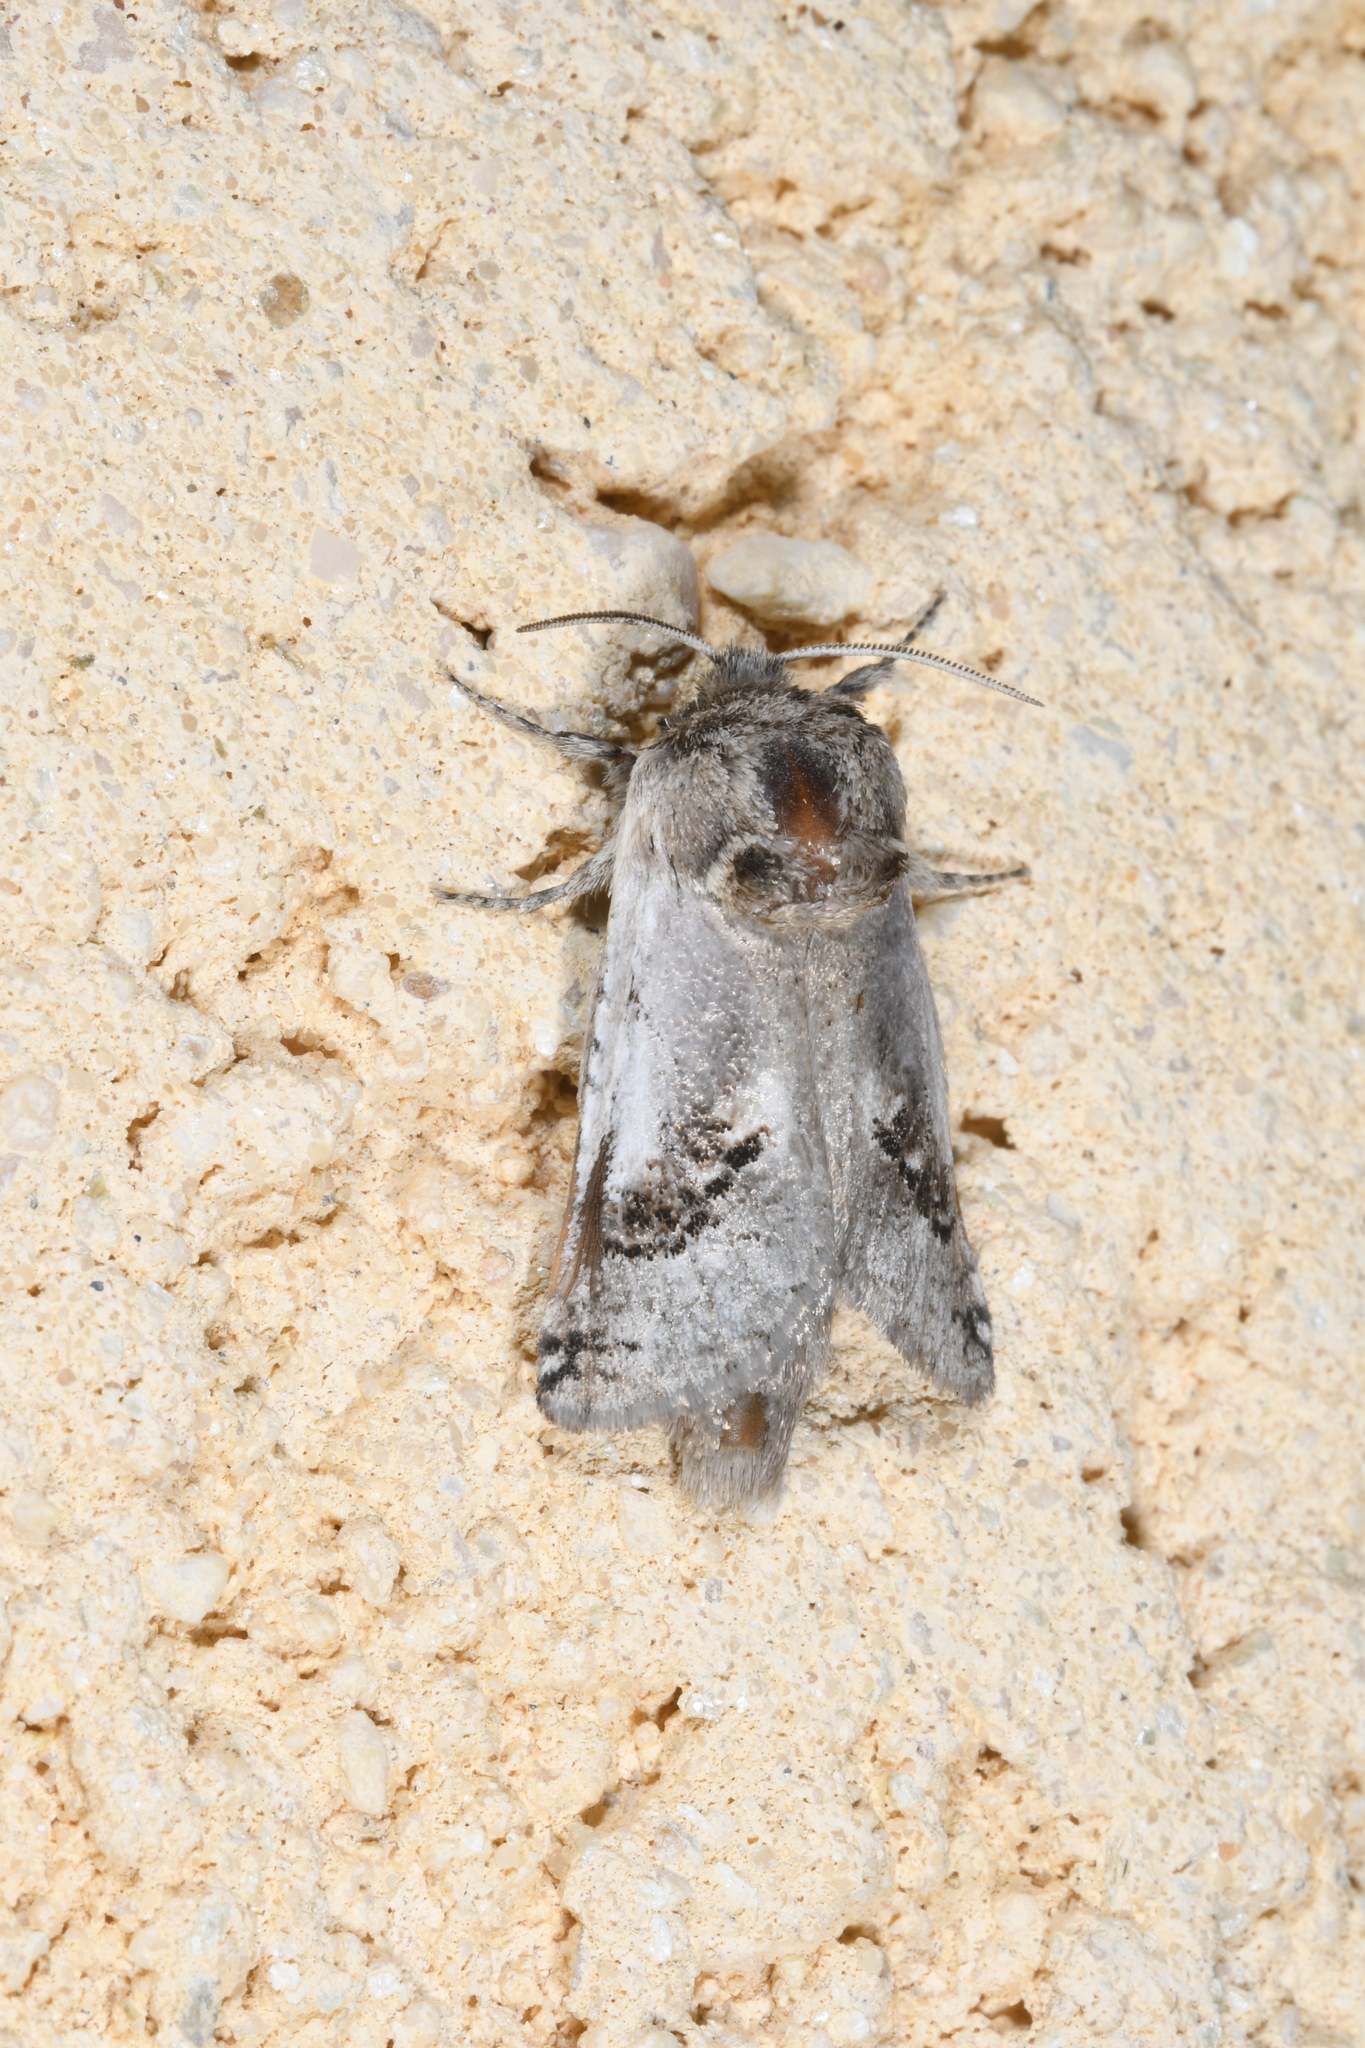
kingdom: Animalia
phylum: Arthropoda
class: Insecta
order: Lepidoptera
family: Cossidae
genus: Parahypopta
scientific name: Parahypopta caestrum
